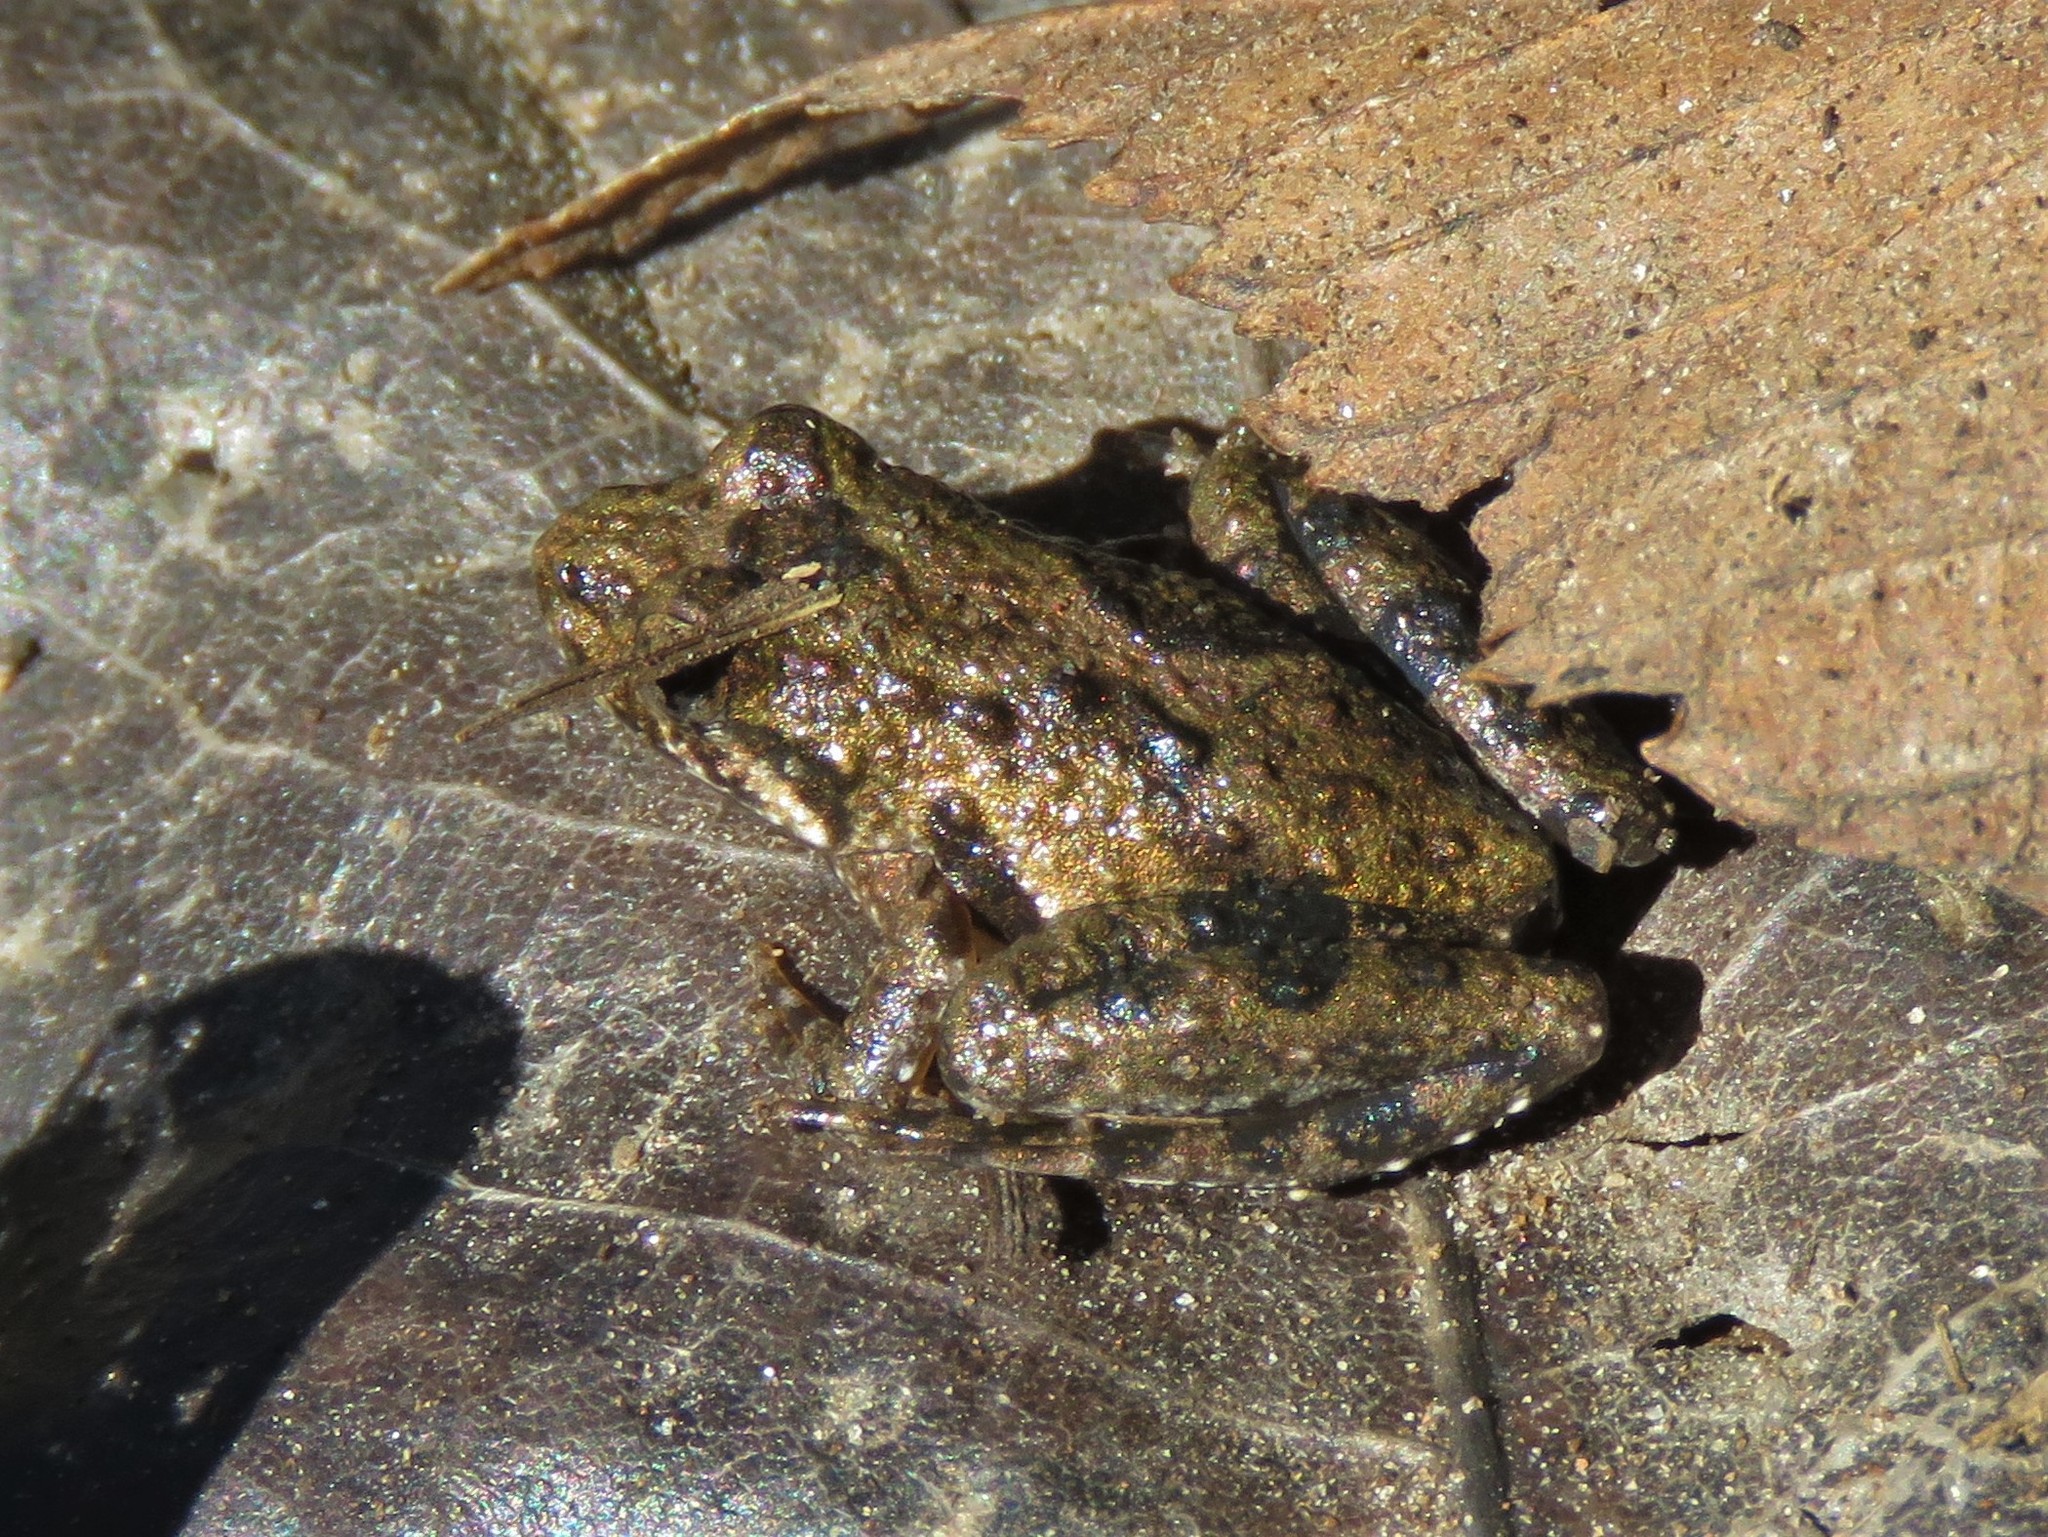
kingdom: Animalia
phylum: Chordata
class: Amphibia
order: Anura
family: Hylidae
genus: Acris
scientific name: Acris blanchardi
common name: Blanchard's cricket frog
